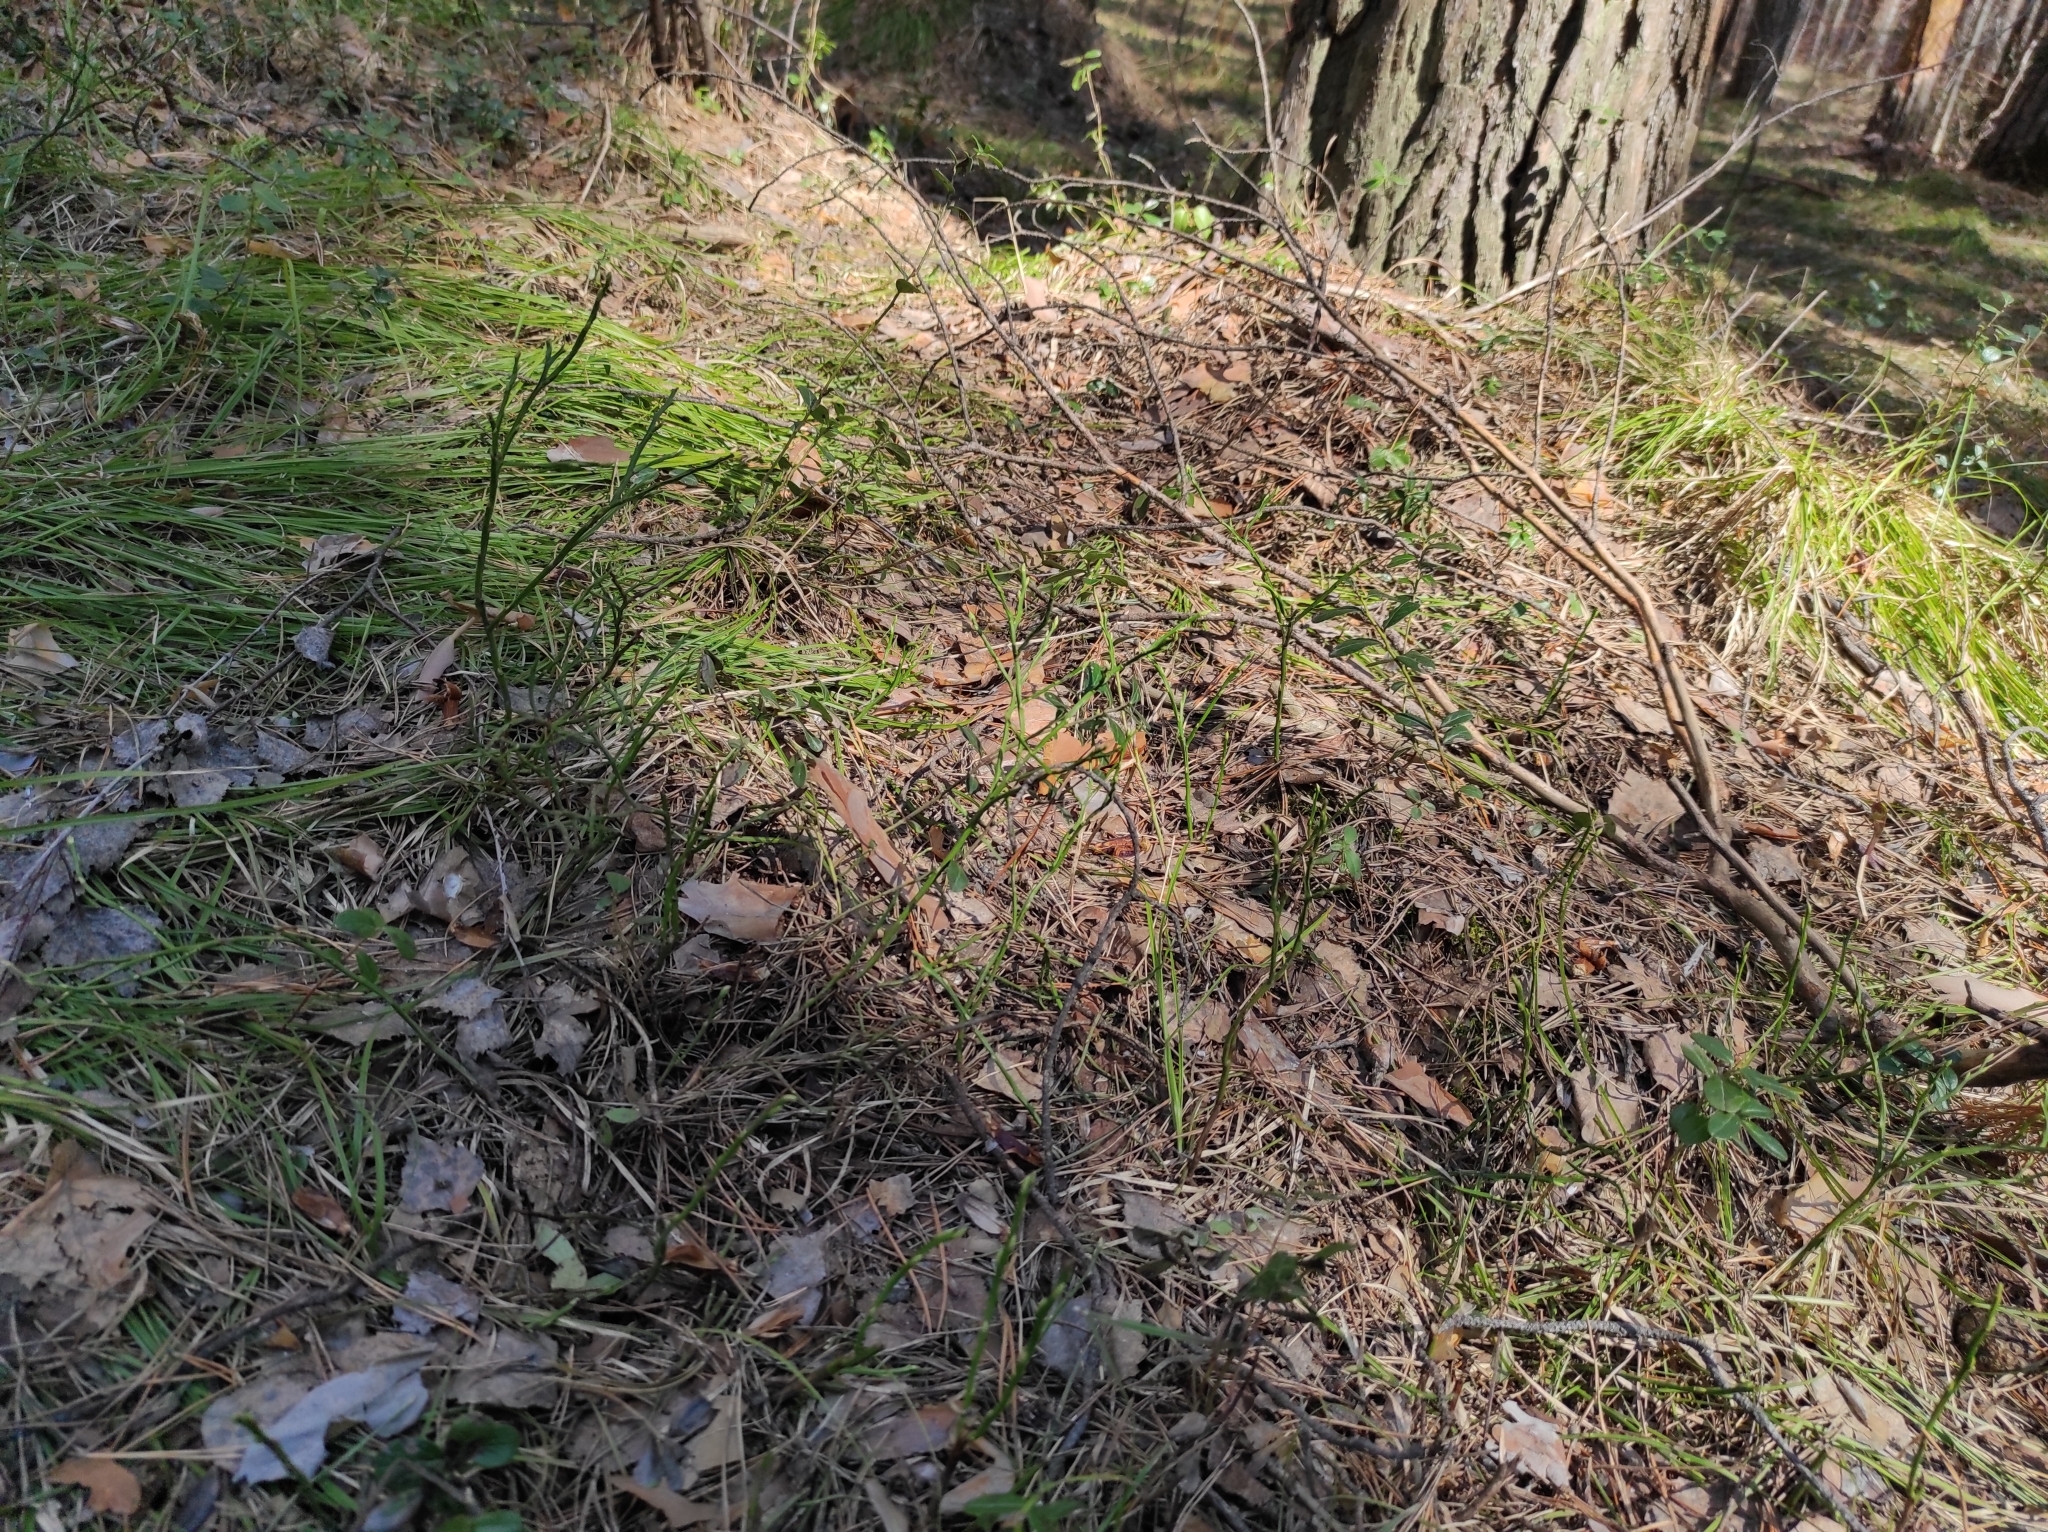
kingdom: Plantae
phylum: Tracheophyta
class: Magnoliopsida
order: Ericales
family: Ericaceae
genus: Vaccinium
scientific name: Vaccinium myrtillus
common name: Bilberry
